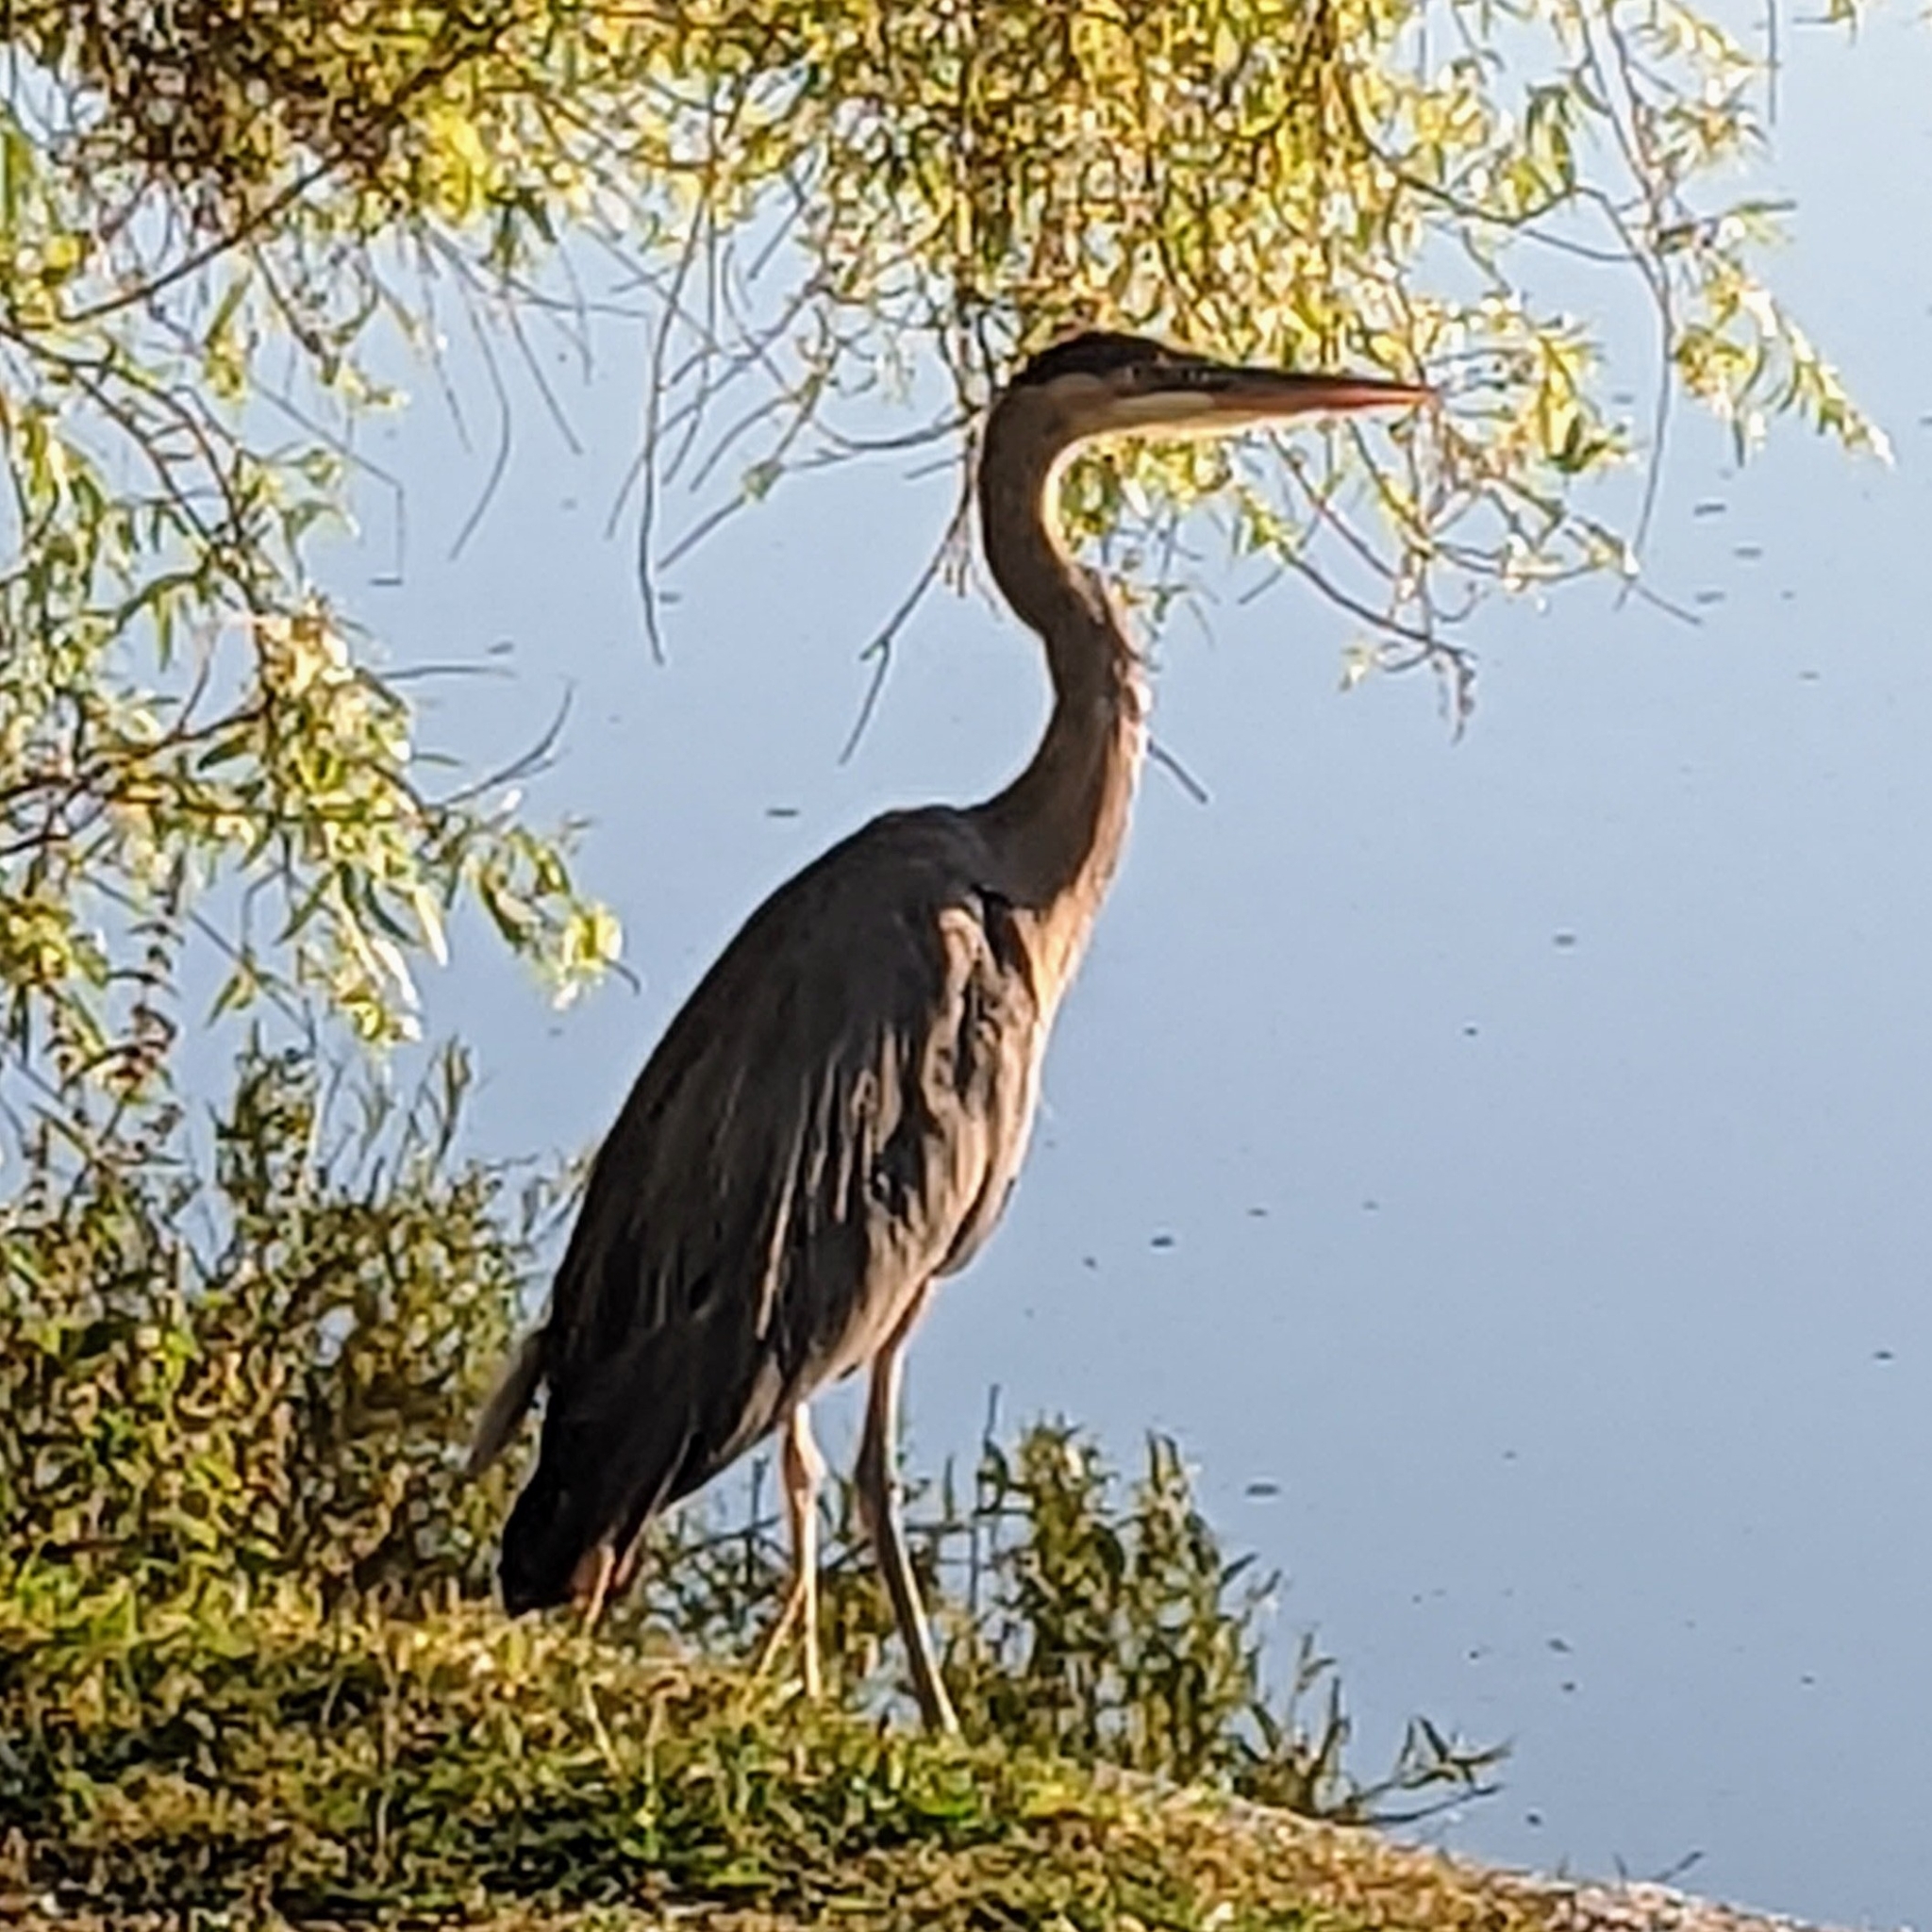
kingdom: Animalia
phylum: Chordata
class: Aves
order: Pelecaniformes
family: Ardeidae
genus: Ardea
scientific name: Ardea herodias
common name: Great blue heron
